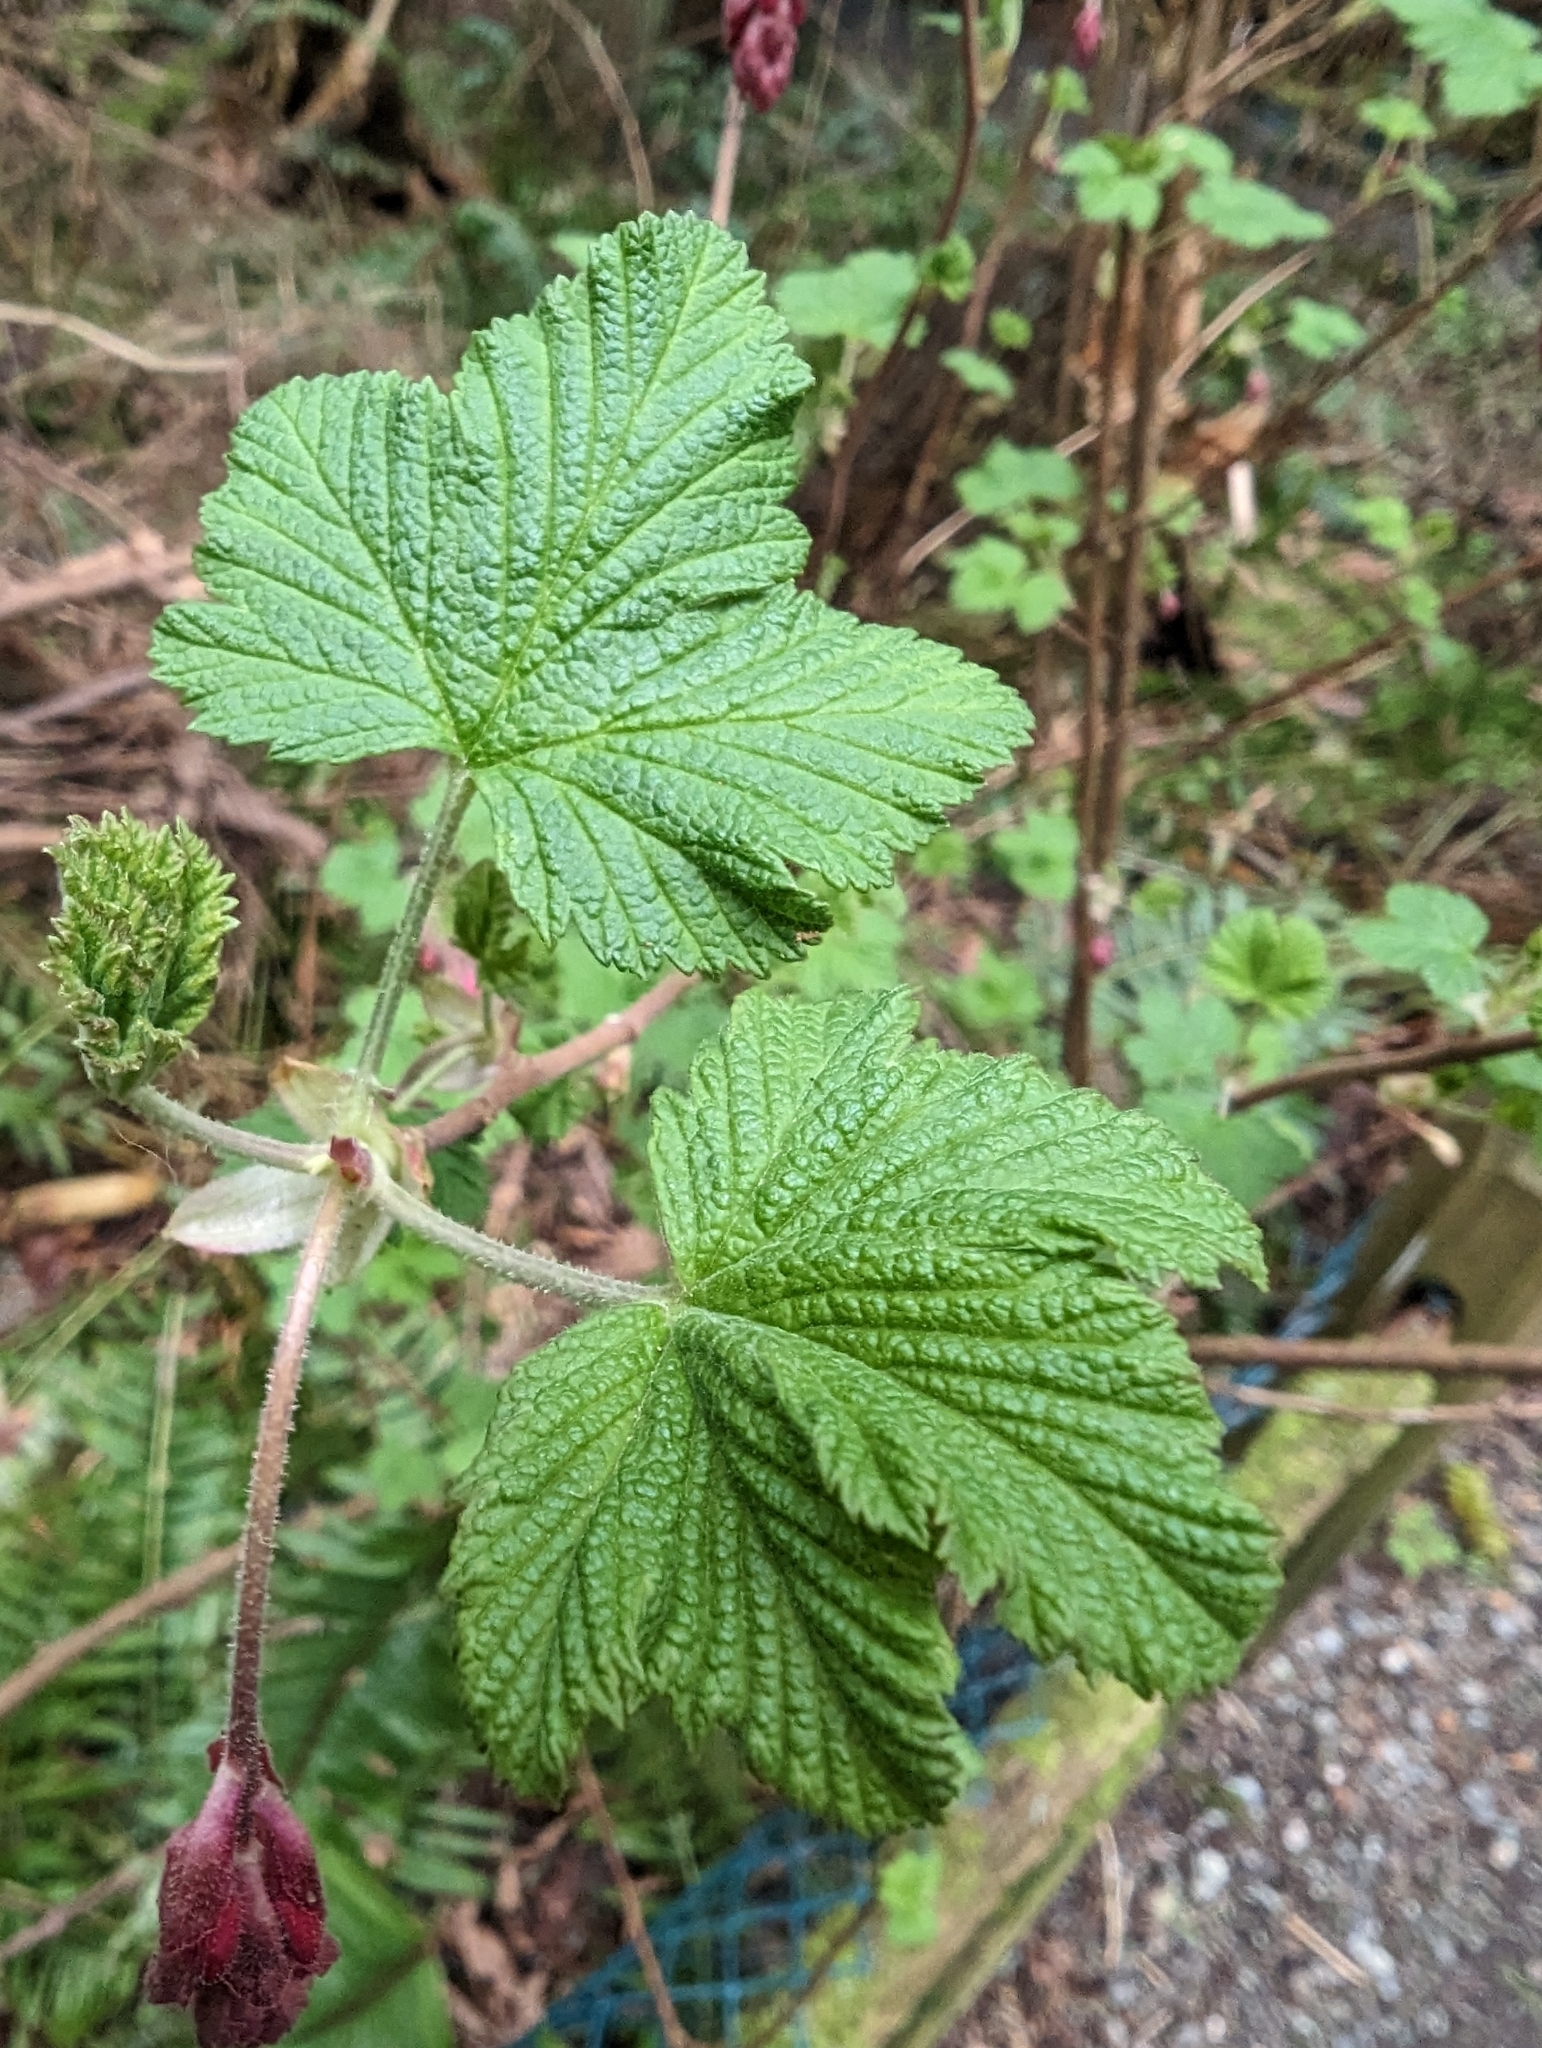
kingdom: Plantae
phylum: Tracheophyta
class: Magnoliopsida
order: Saxifragales
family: Grossulariaceae
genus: Ribes
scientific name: Ribes sanguineum
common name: Flowering currant
